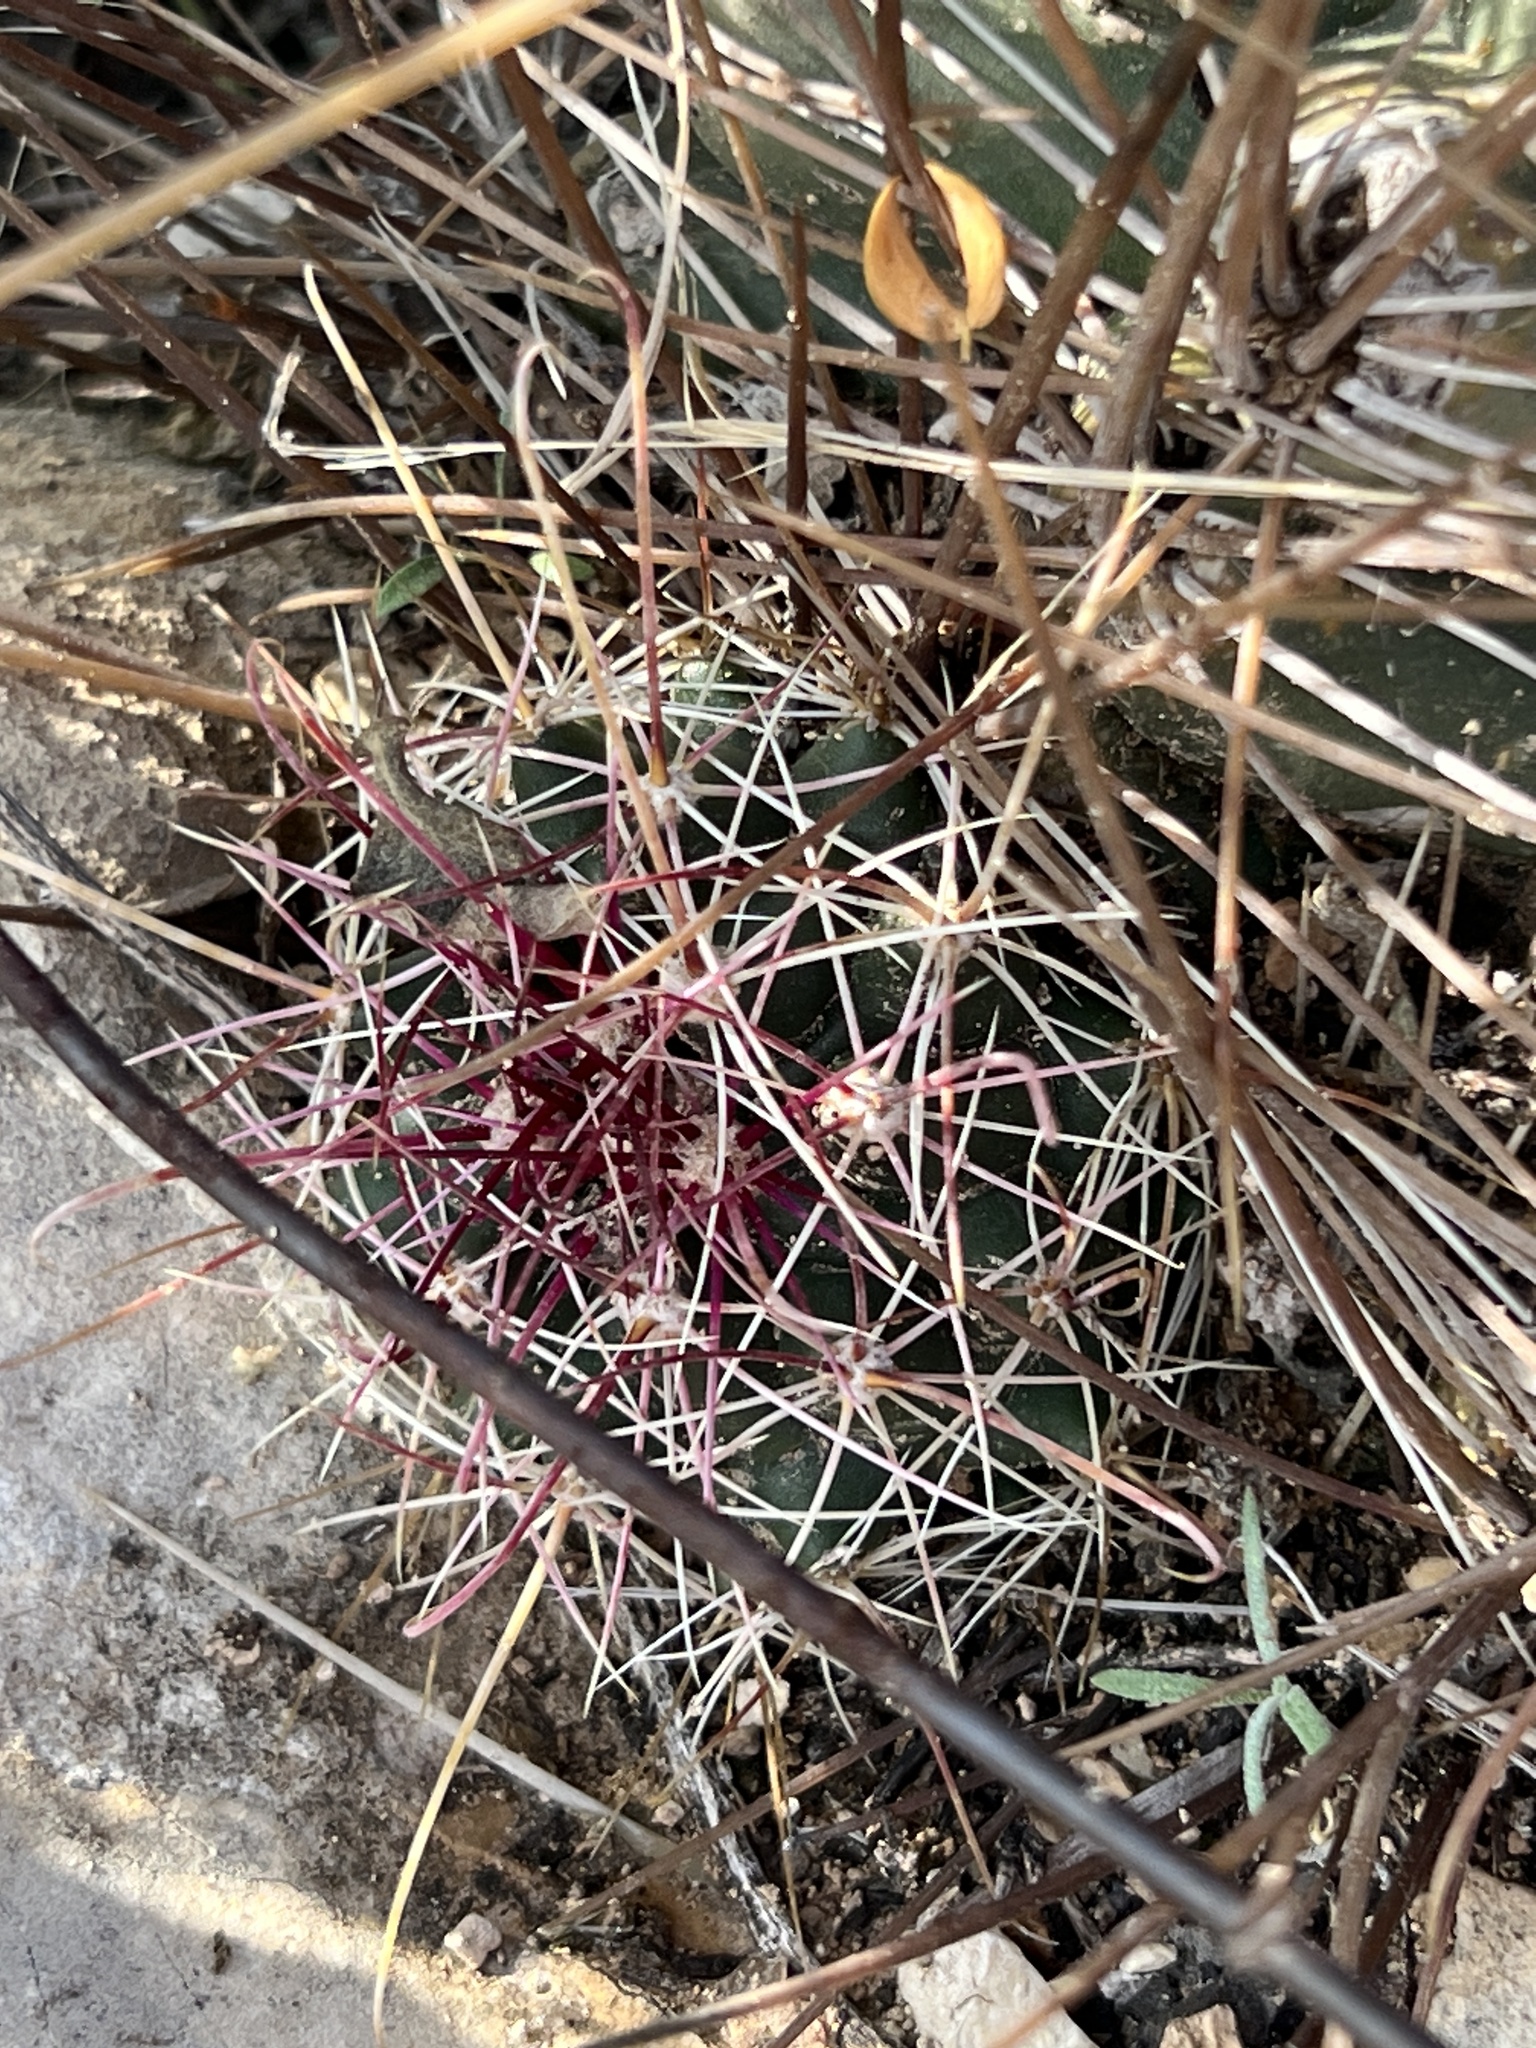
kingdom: Plantae
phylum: Tracheophyta
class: Magnoliopsida
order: Caryophyllales
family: Cactaceae
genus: Bisnaga
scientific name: Bisnaga hamatacantha
